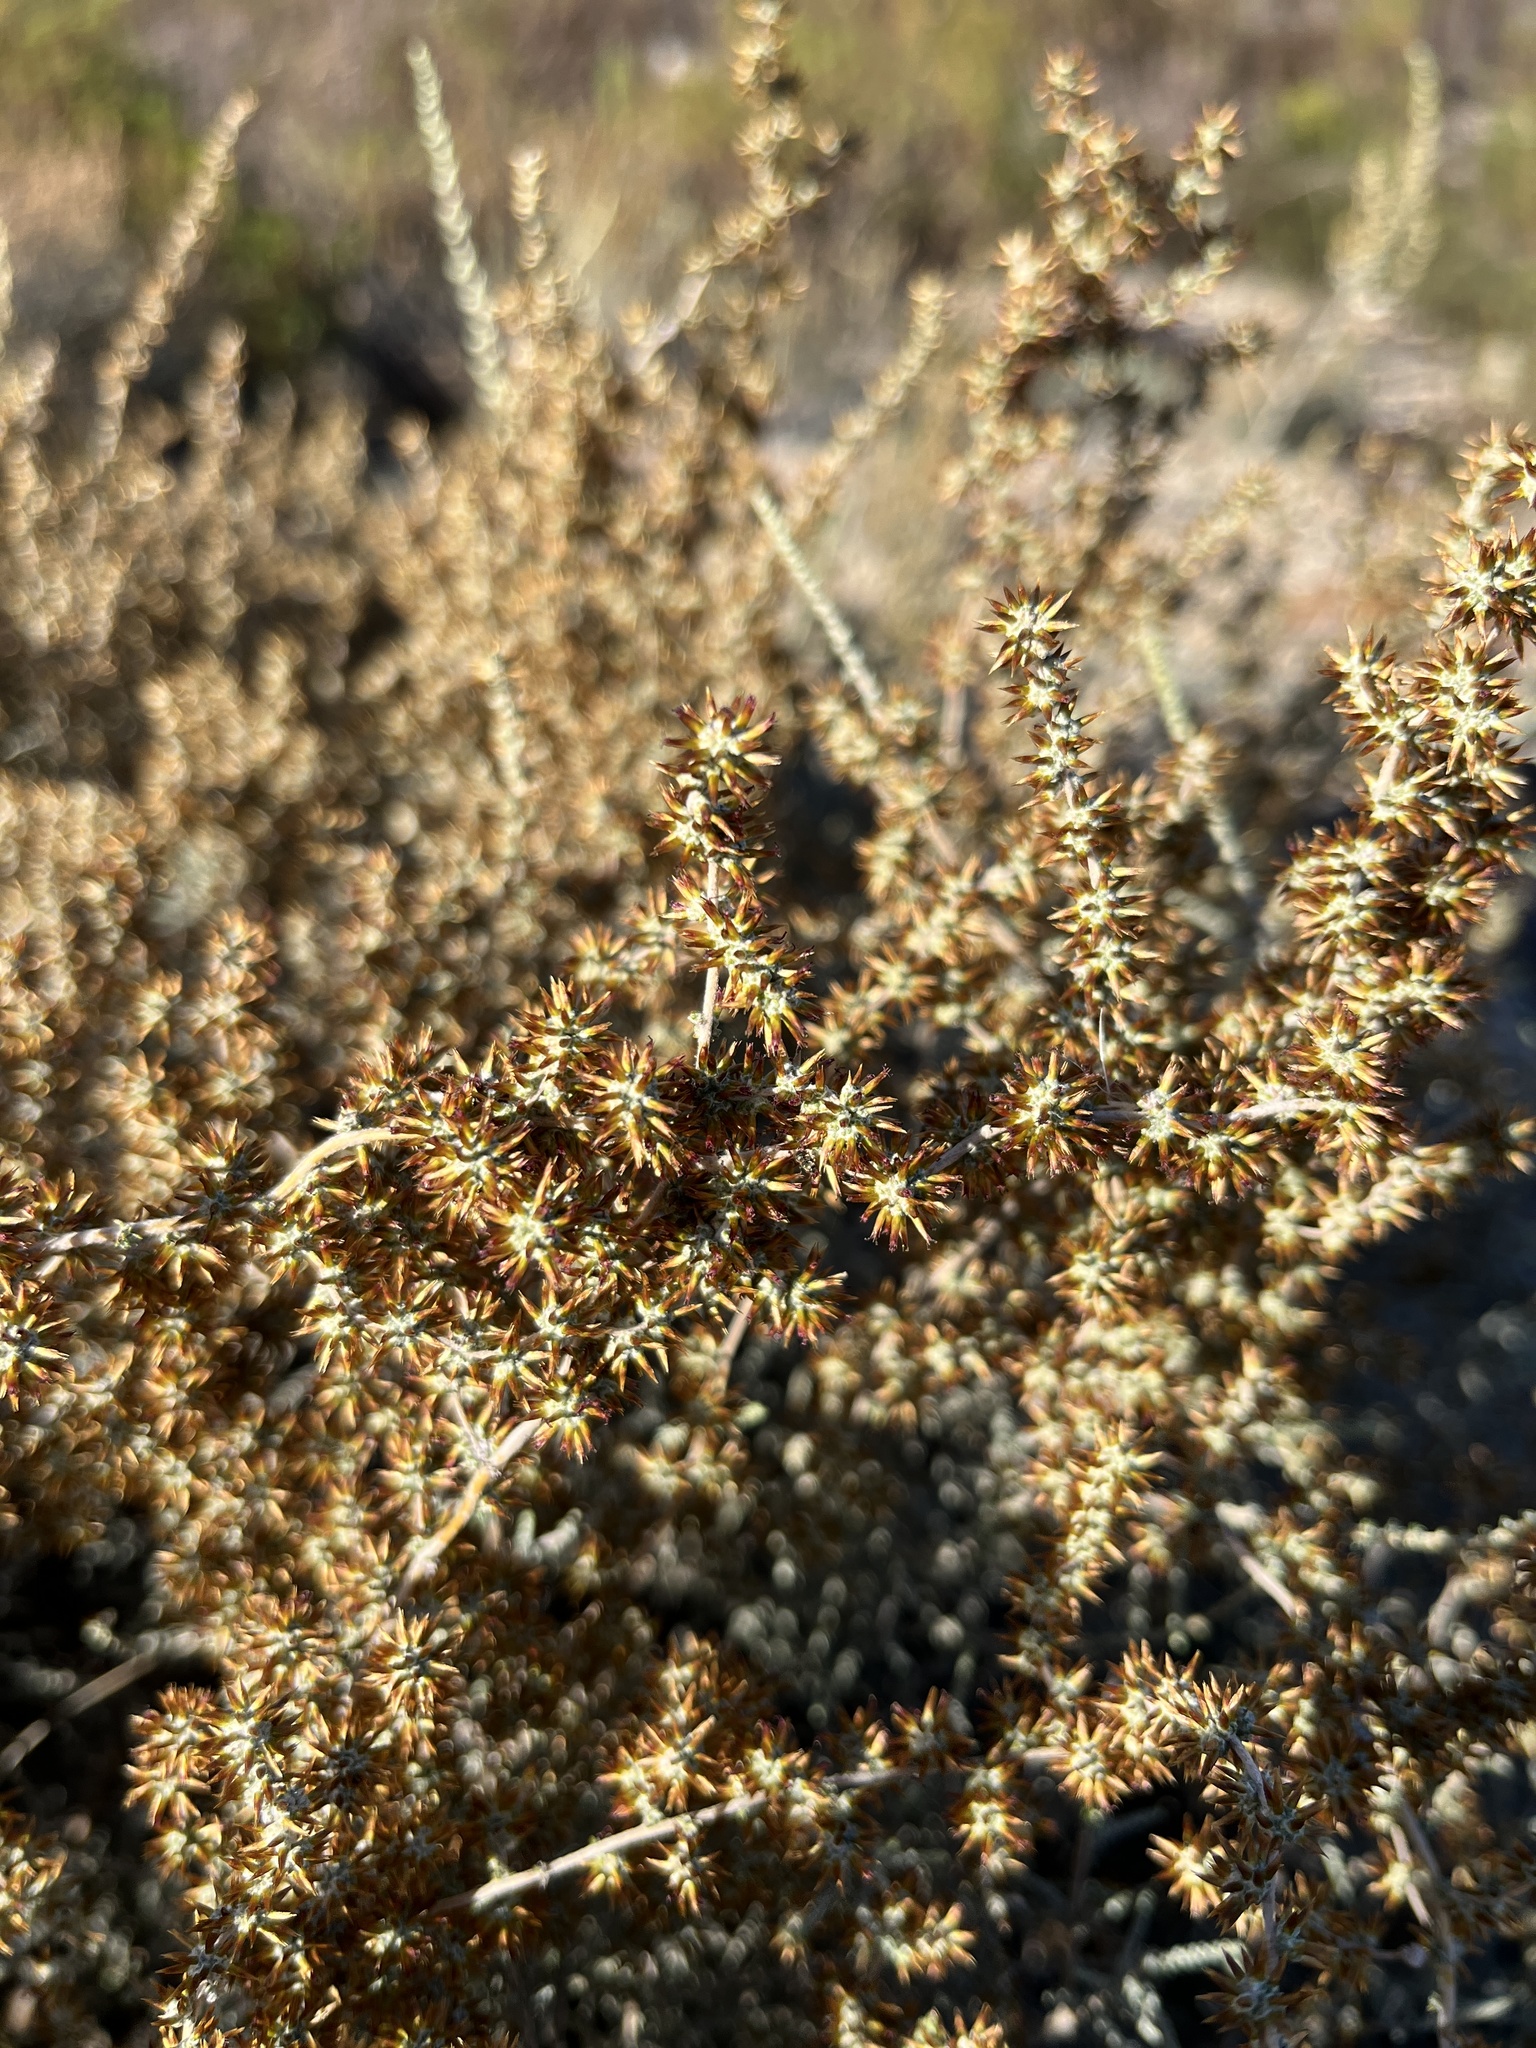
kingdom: Plantae
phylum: Tracheophyta
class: Magnoliopsida
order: Asterales
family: Asteraceae
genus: Seriphium
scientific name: Seriphium plumosum
